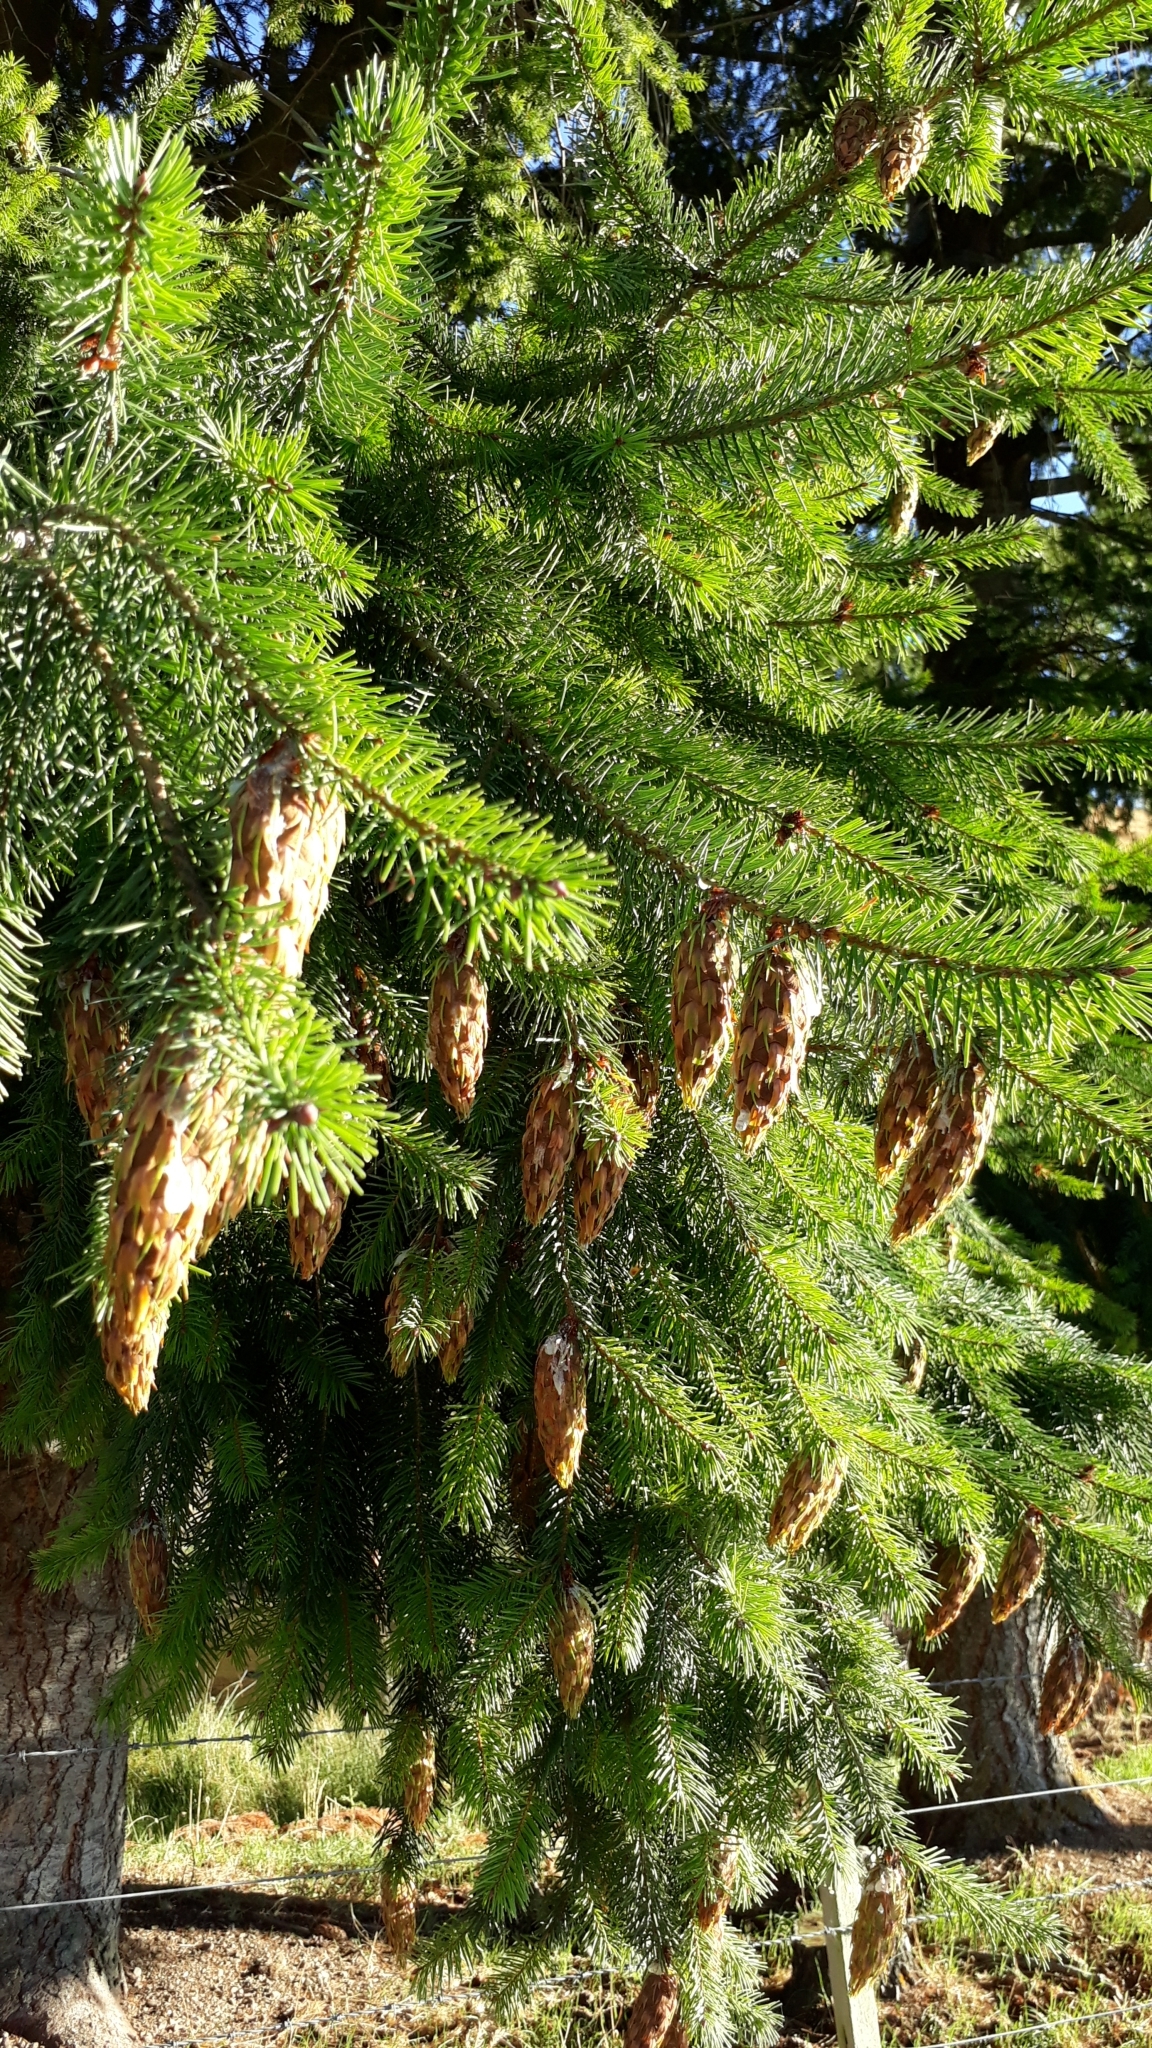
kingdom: Plantae
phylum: Tracheophyta
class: Pinopsida
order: Pinales
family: Pinaceae
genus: Pseudotsuga
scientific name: Pseudotsuga menziesii
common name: Douglas fir
